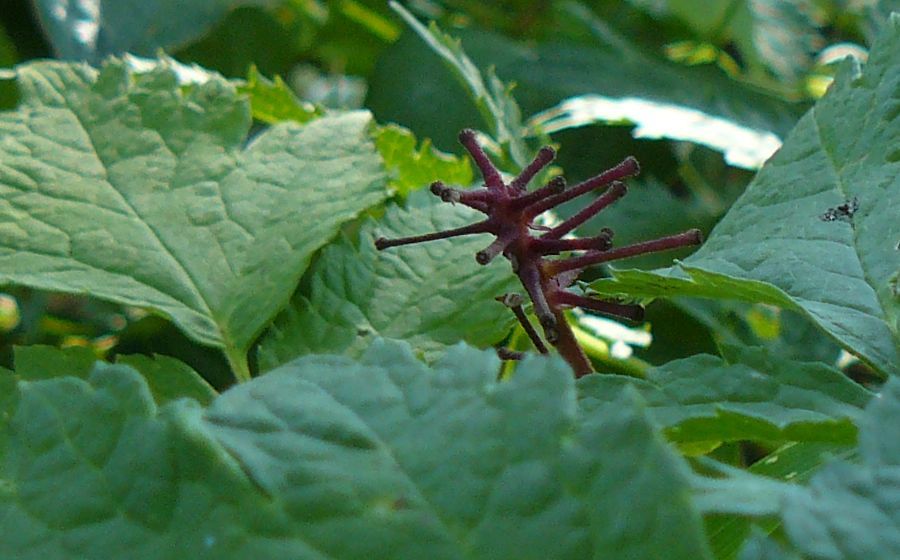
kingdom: Plantae
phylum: Tracheophyta
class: Magnoliopsida
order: Ranunculales
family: Ranunculaceae
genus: Actaea
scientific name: Actaea rubra
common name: Red baneberry
